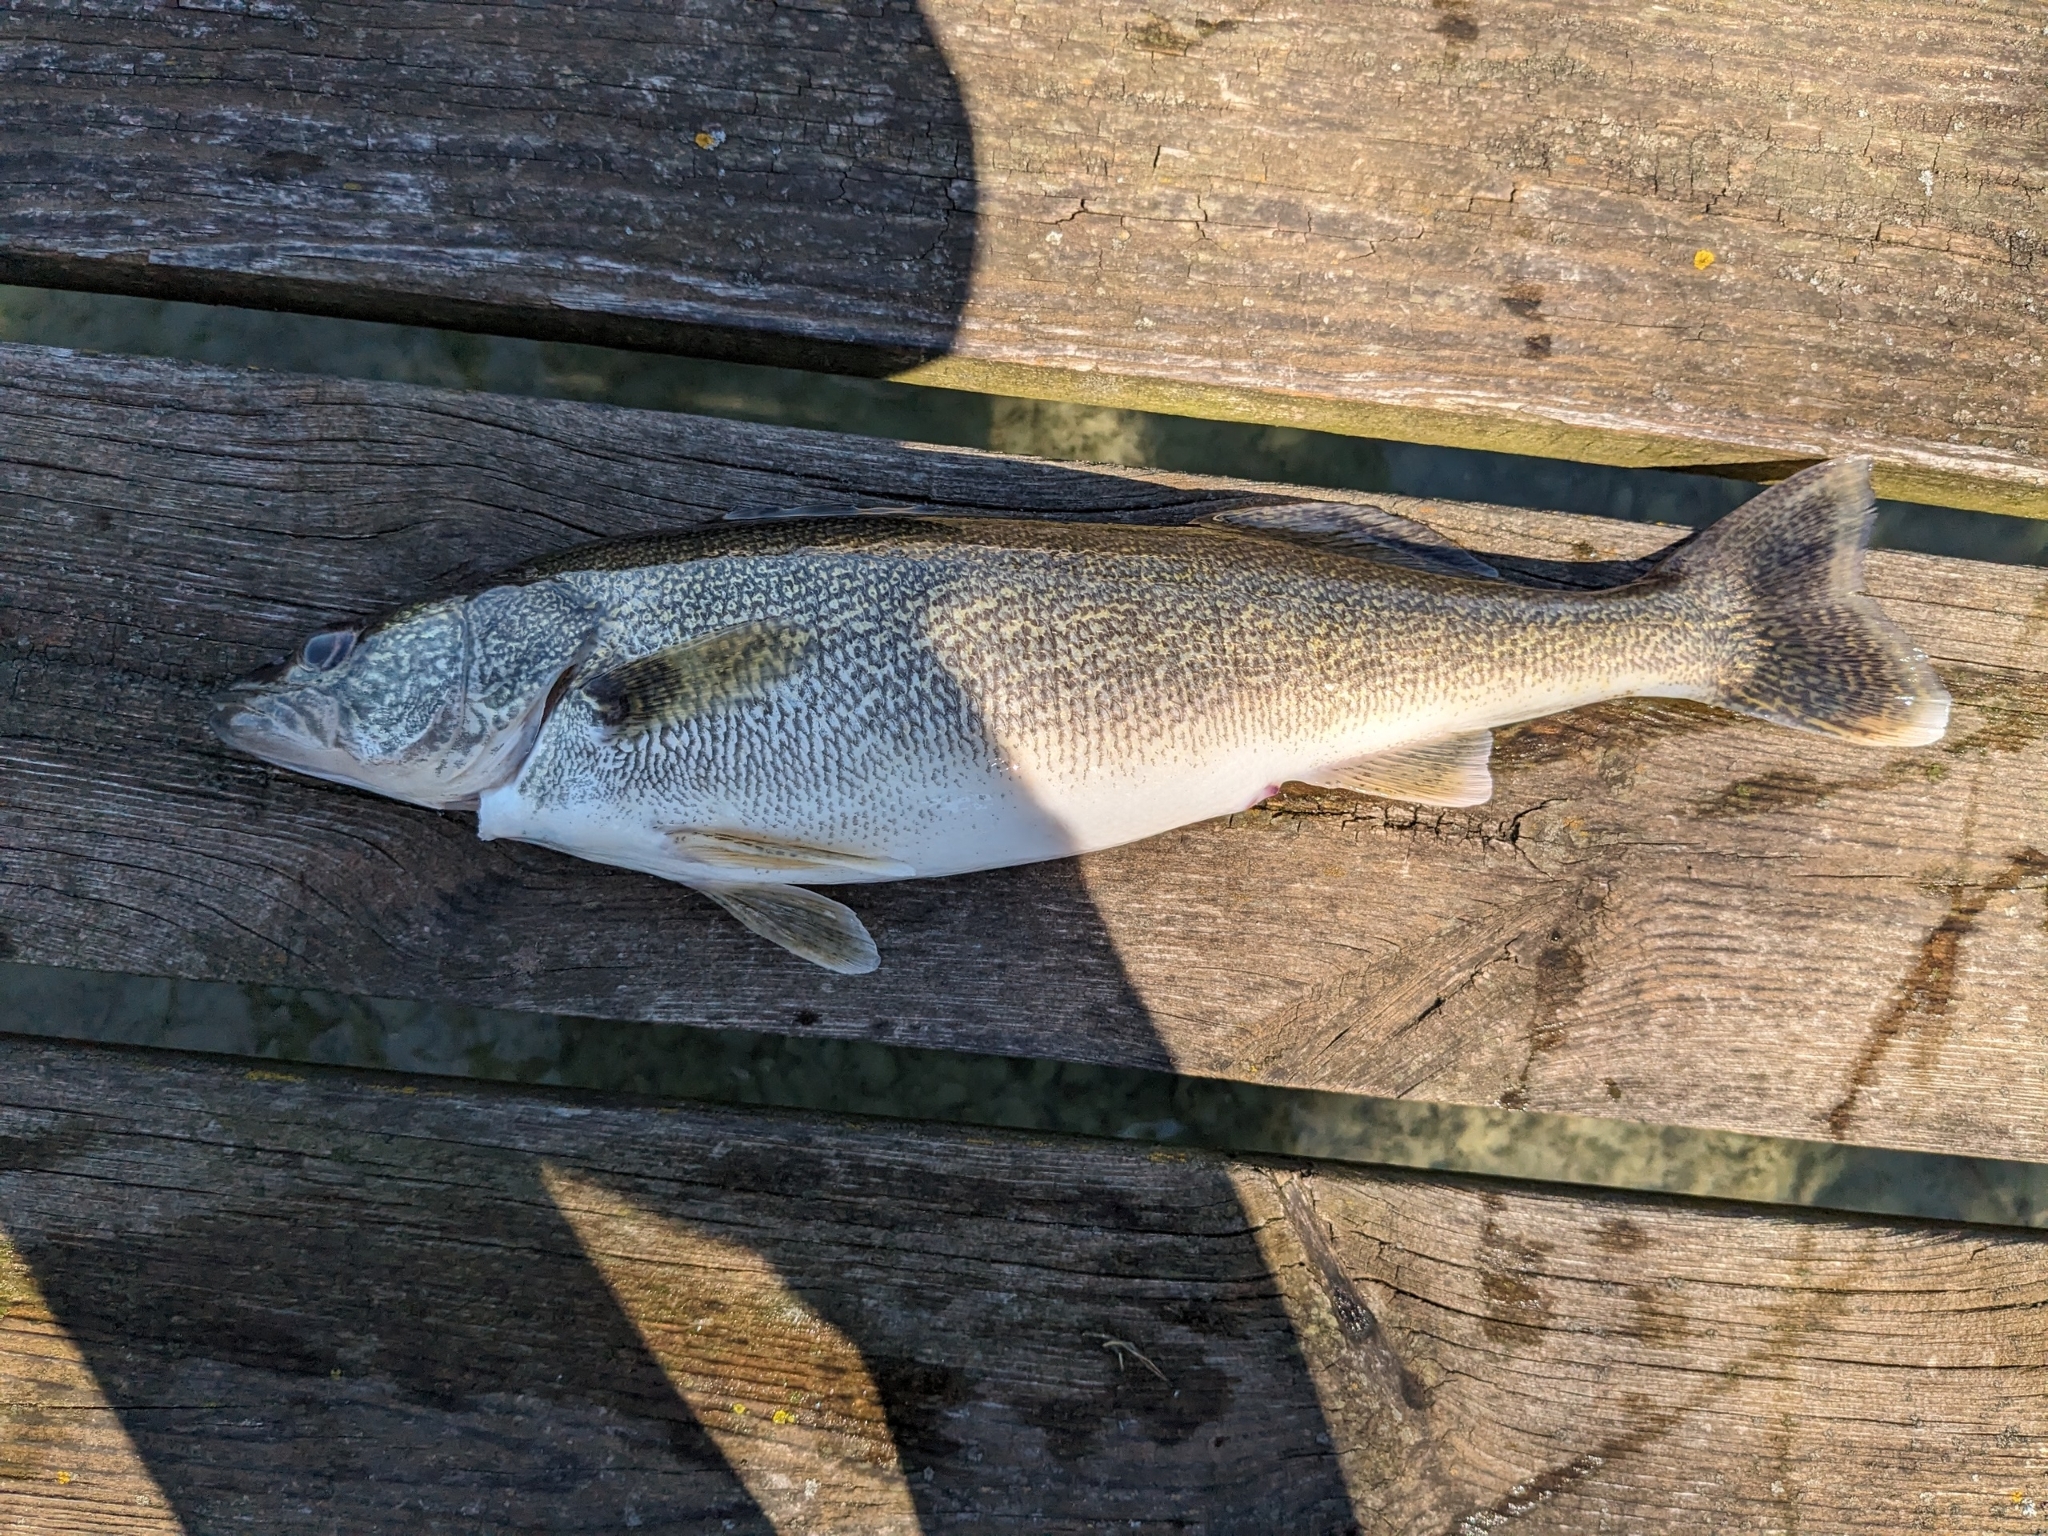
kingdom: Animalia
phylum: Chordata
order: Perciformes
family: Percidae
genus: Sander
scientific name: Sander vitreus
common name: Walleye
